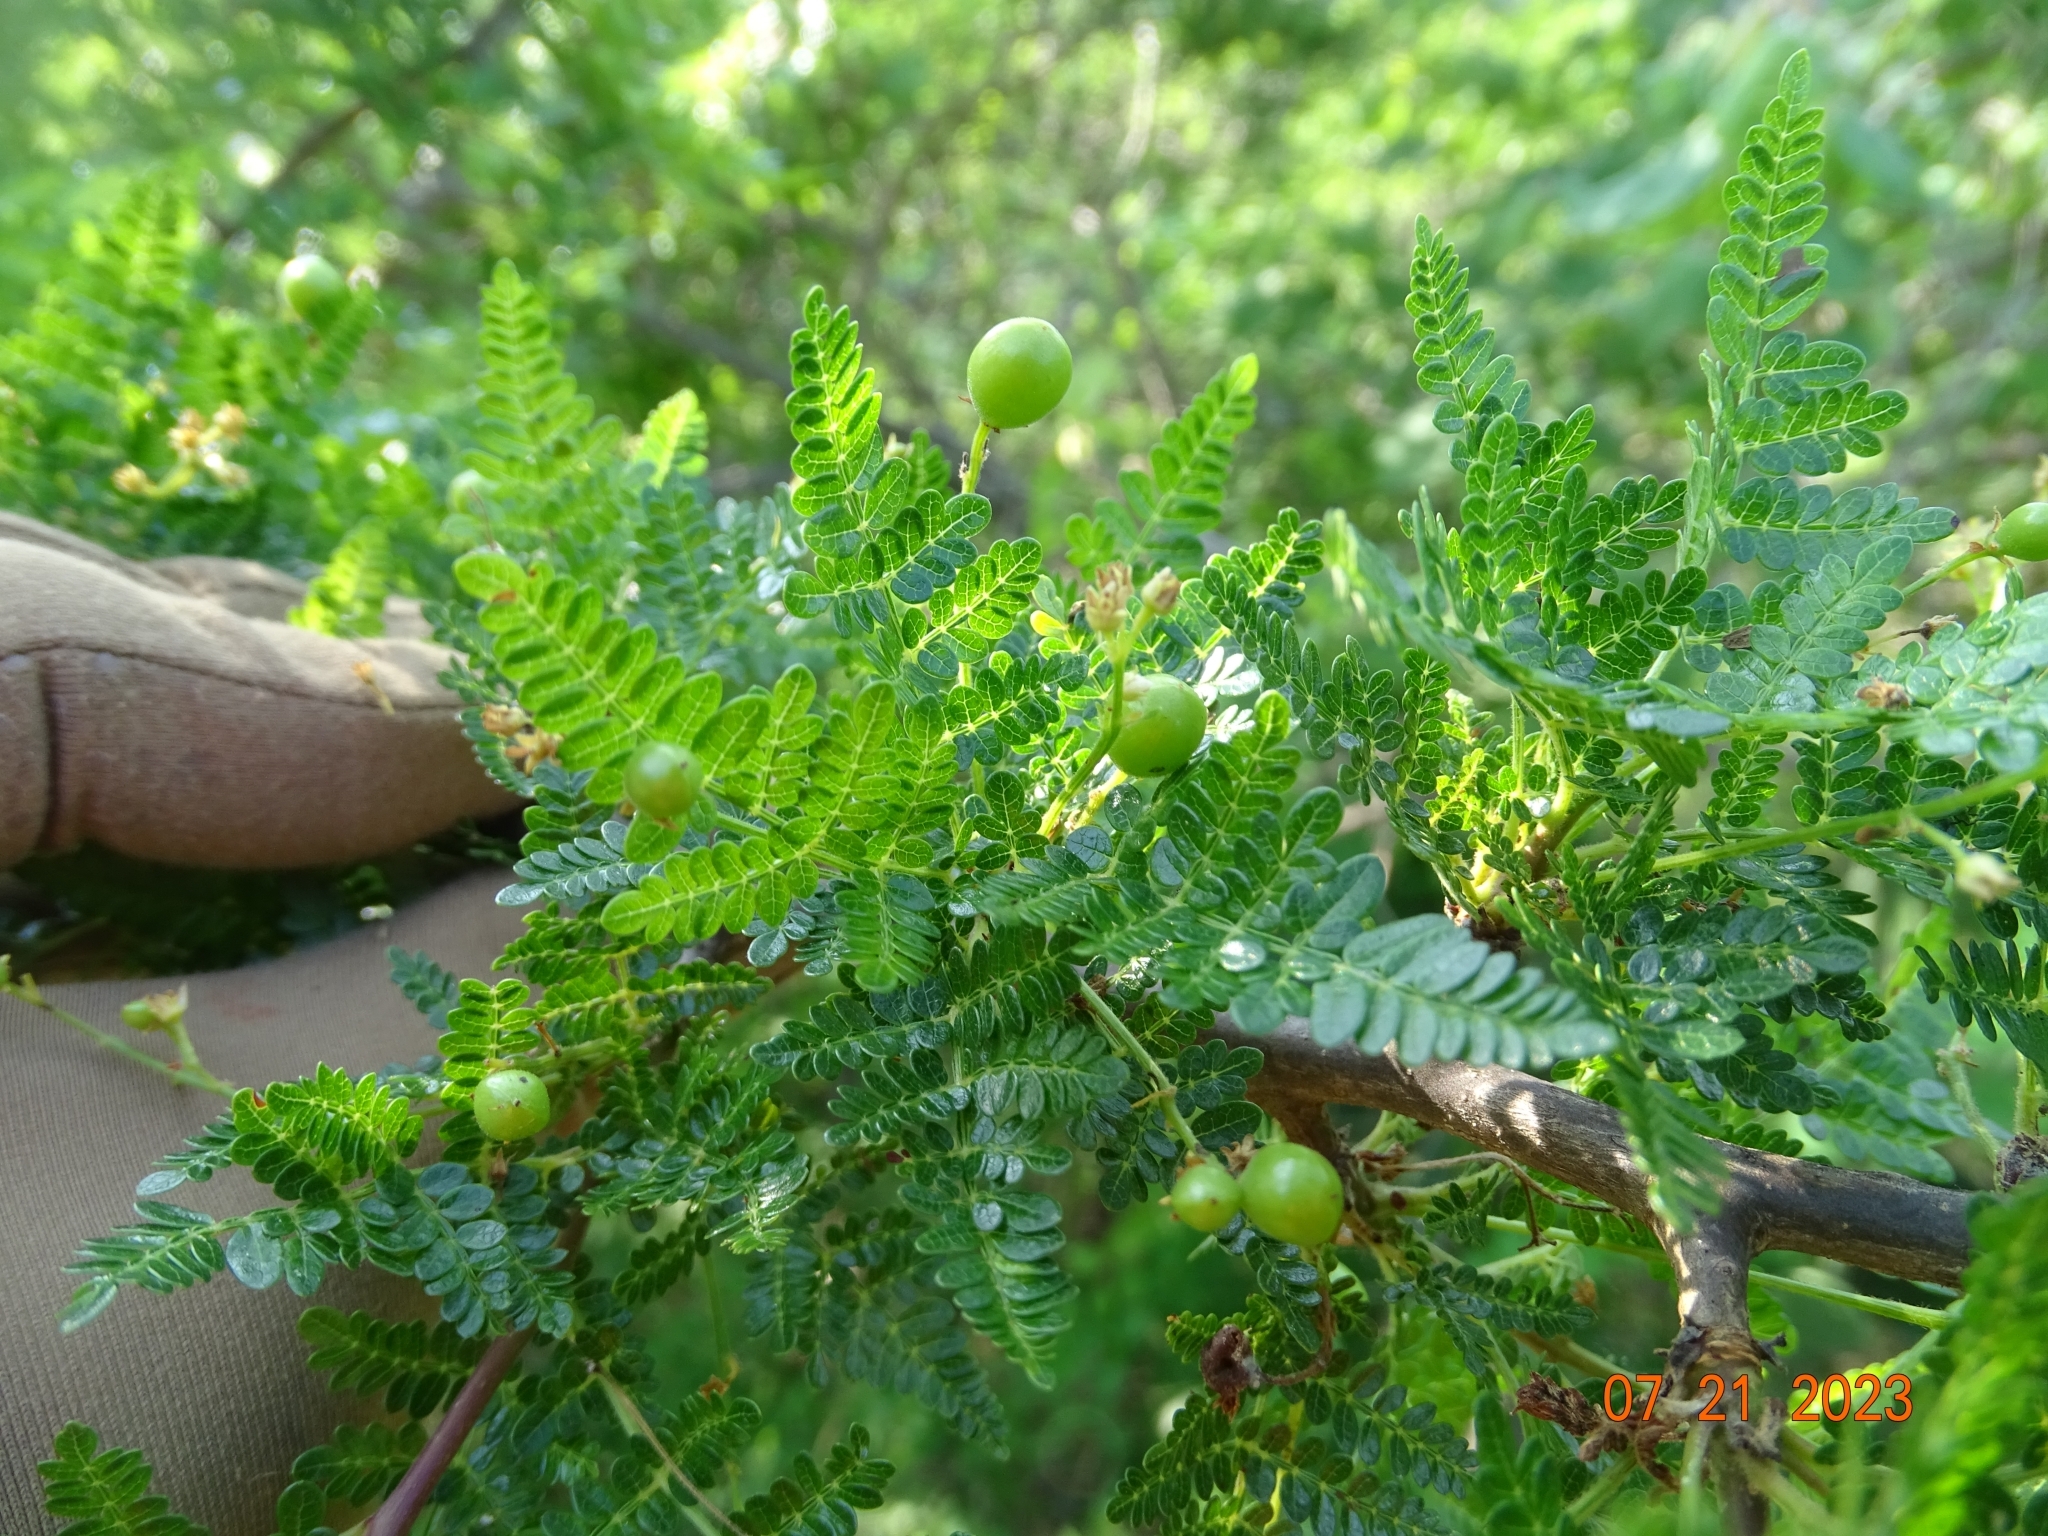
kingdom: Plantae
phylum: Tracheophyta
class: Magnoliopsida
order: Sapindales
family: Burseraceae
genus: Bursera
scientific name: Bursera bipinnata
